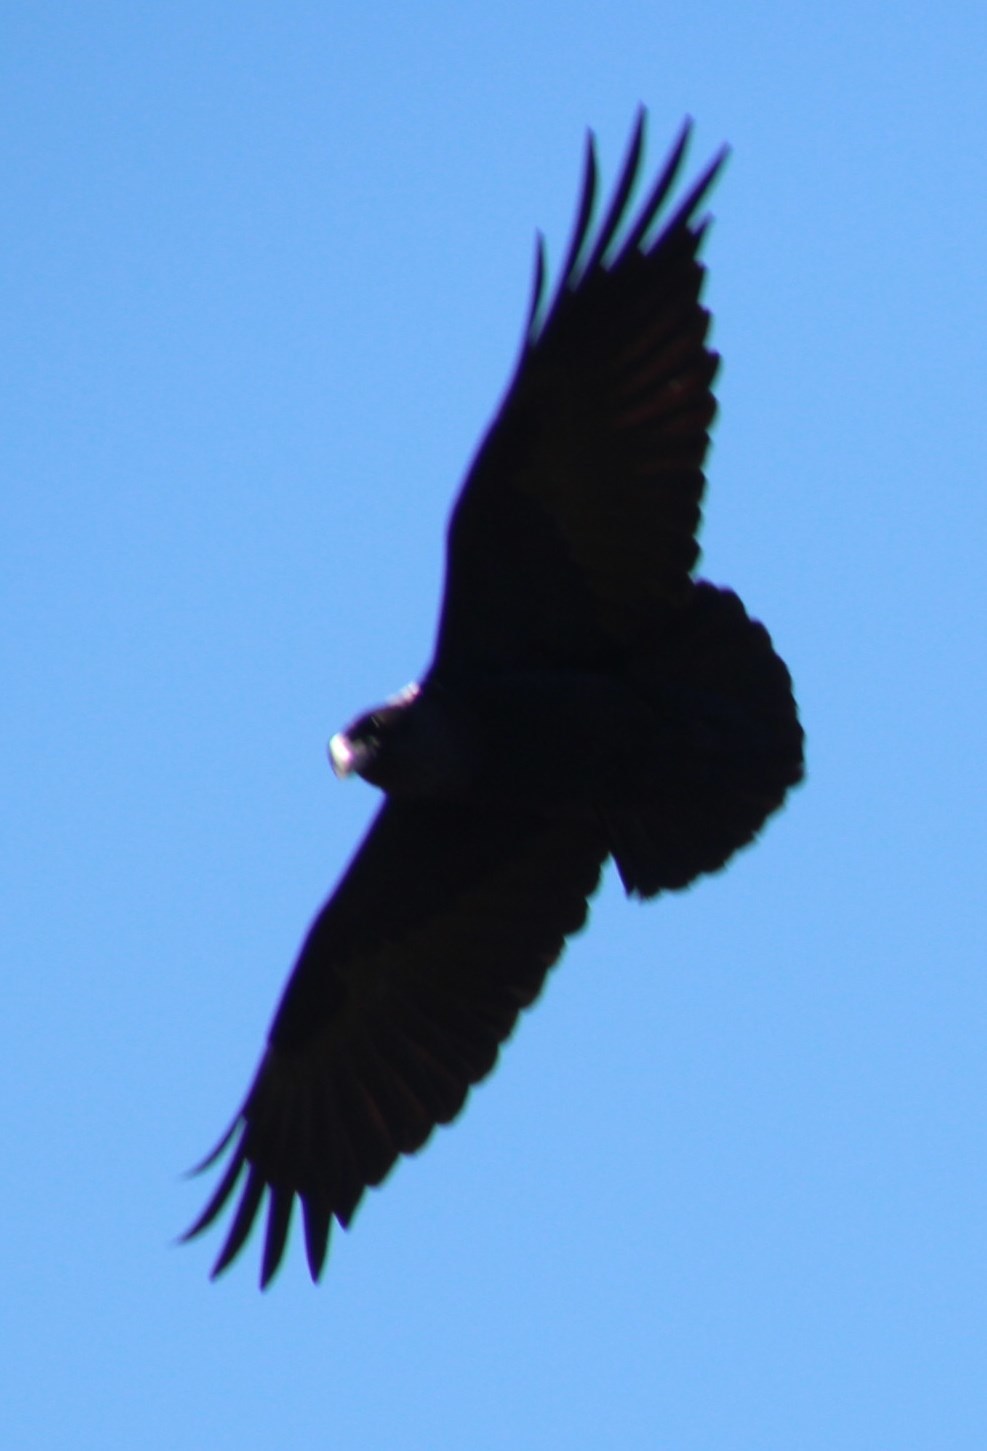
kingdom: Animalia
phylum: Chordata
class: Aves
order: Passeriformes
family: Corvidae
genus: Corvus
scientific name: Corvus albicollis
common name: White-necked raven
